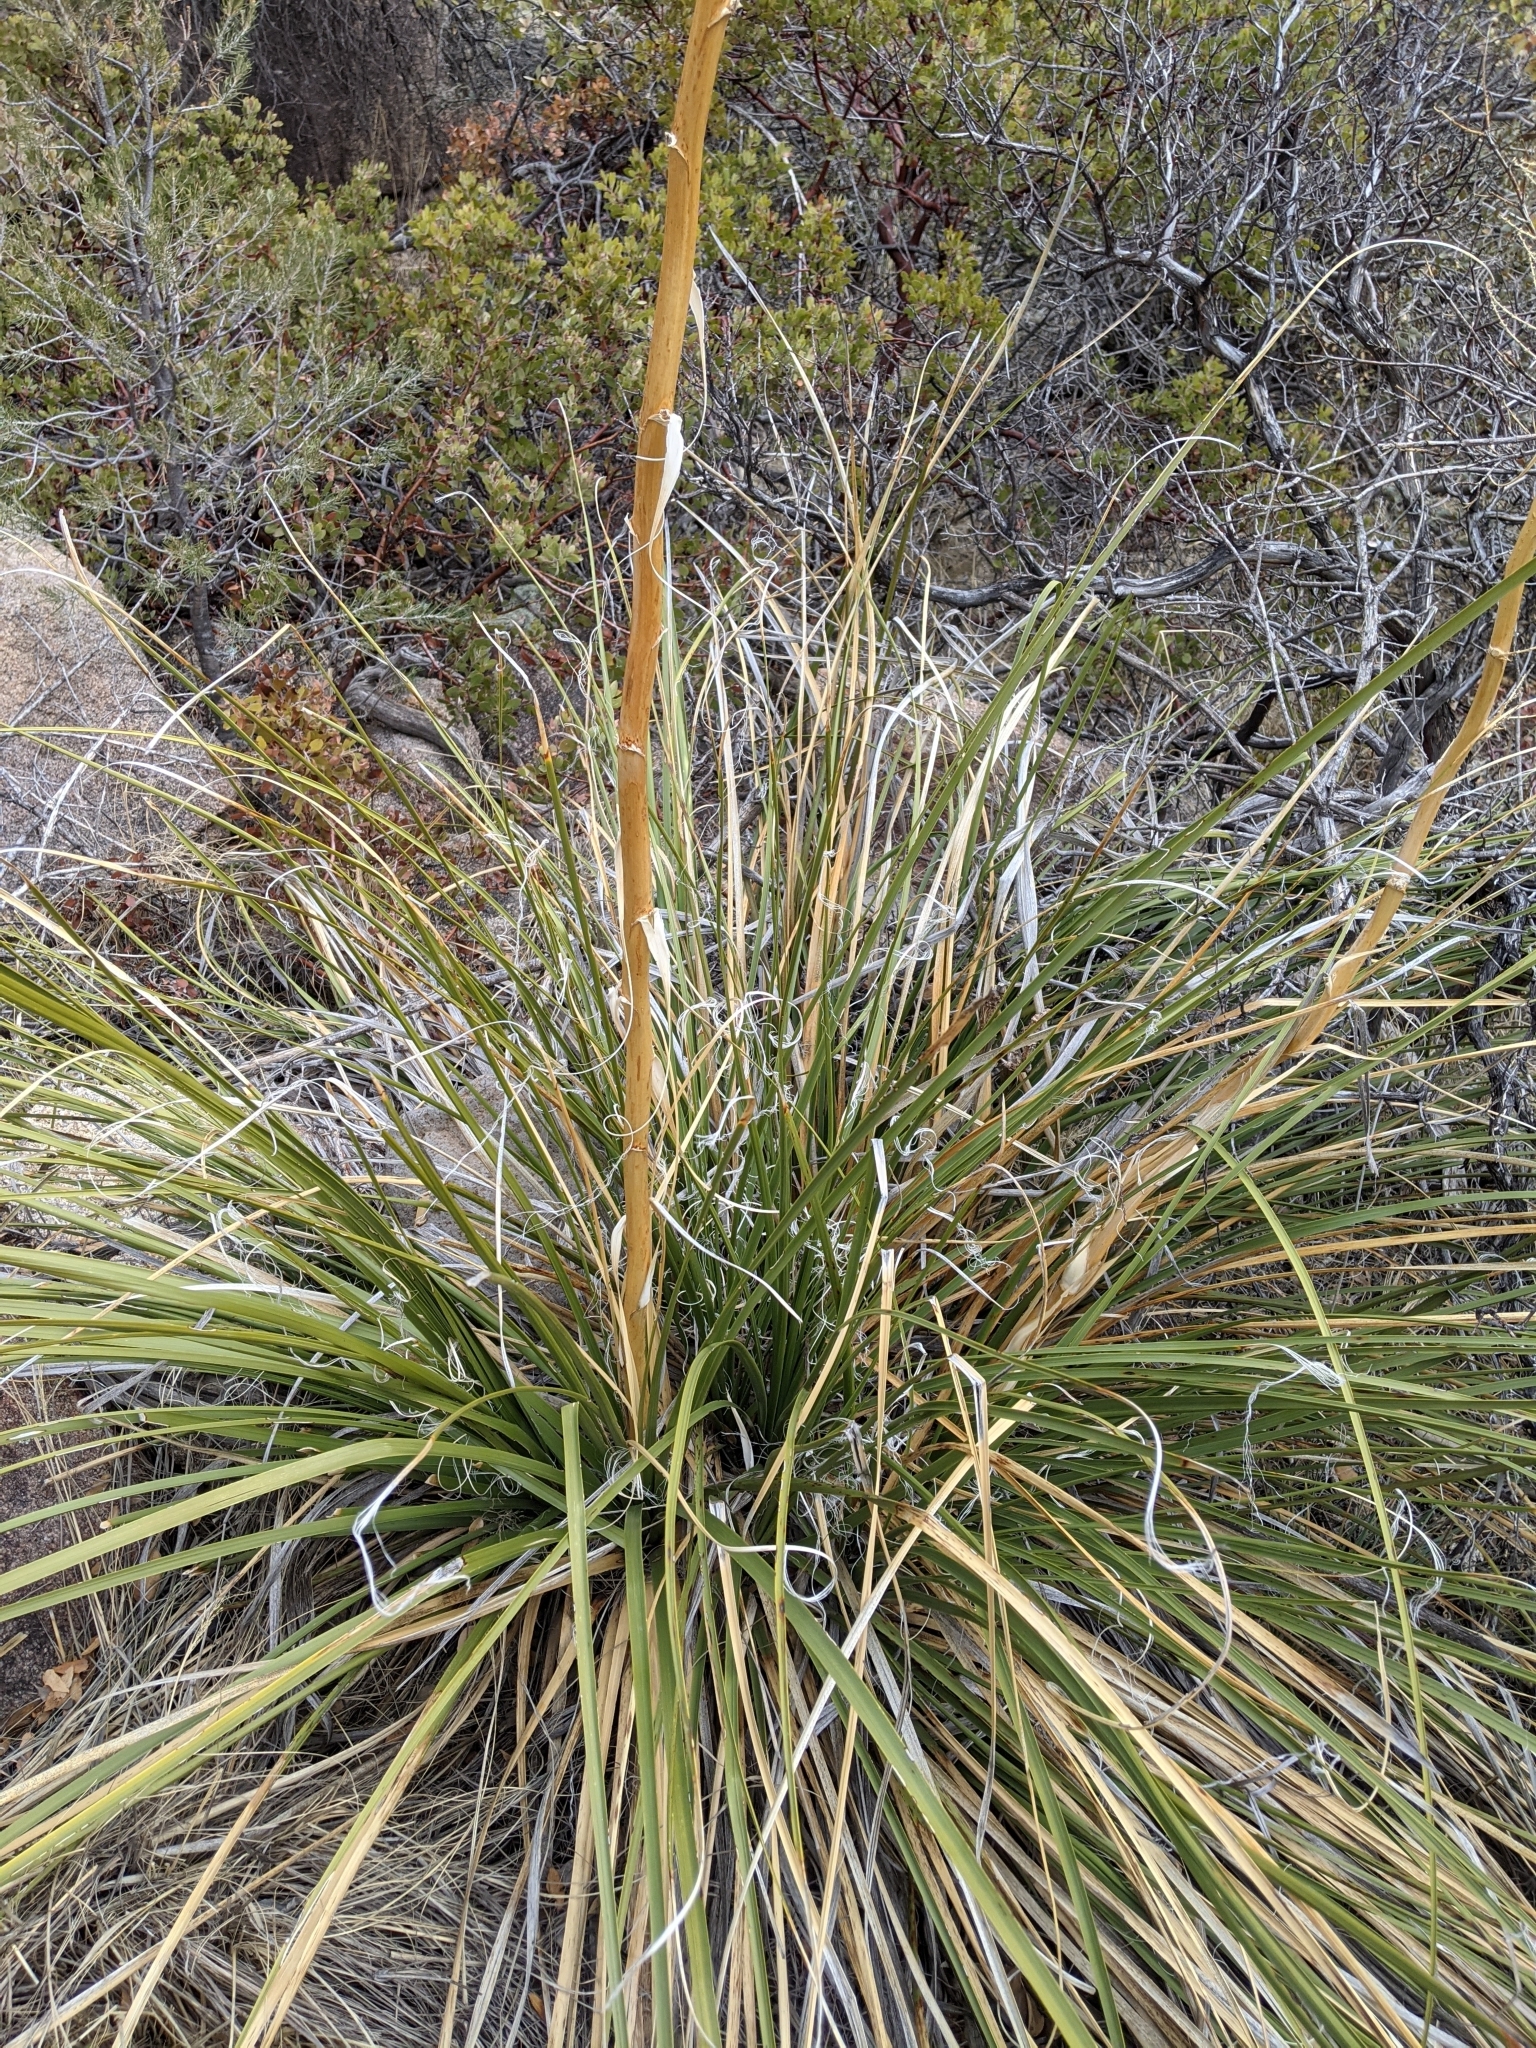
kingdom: Plantae
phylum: Tracheophyta
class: Liliopsida
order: Asparagales
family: Asparagaceae
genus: Nolina
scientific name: Nolina microcarpa
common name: Bear-grass
